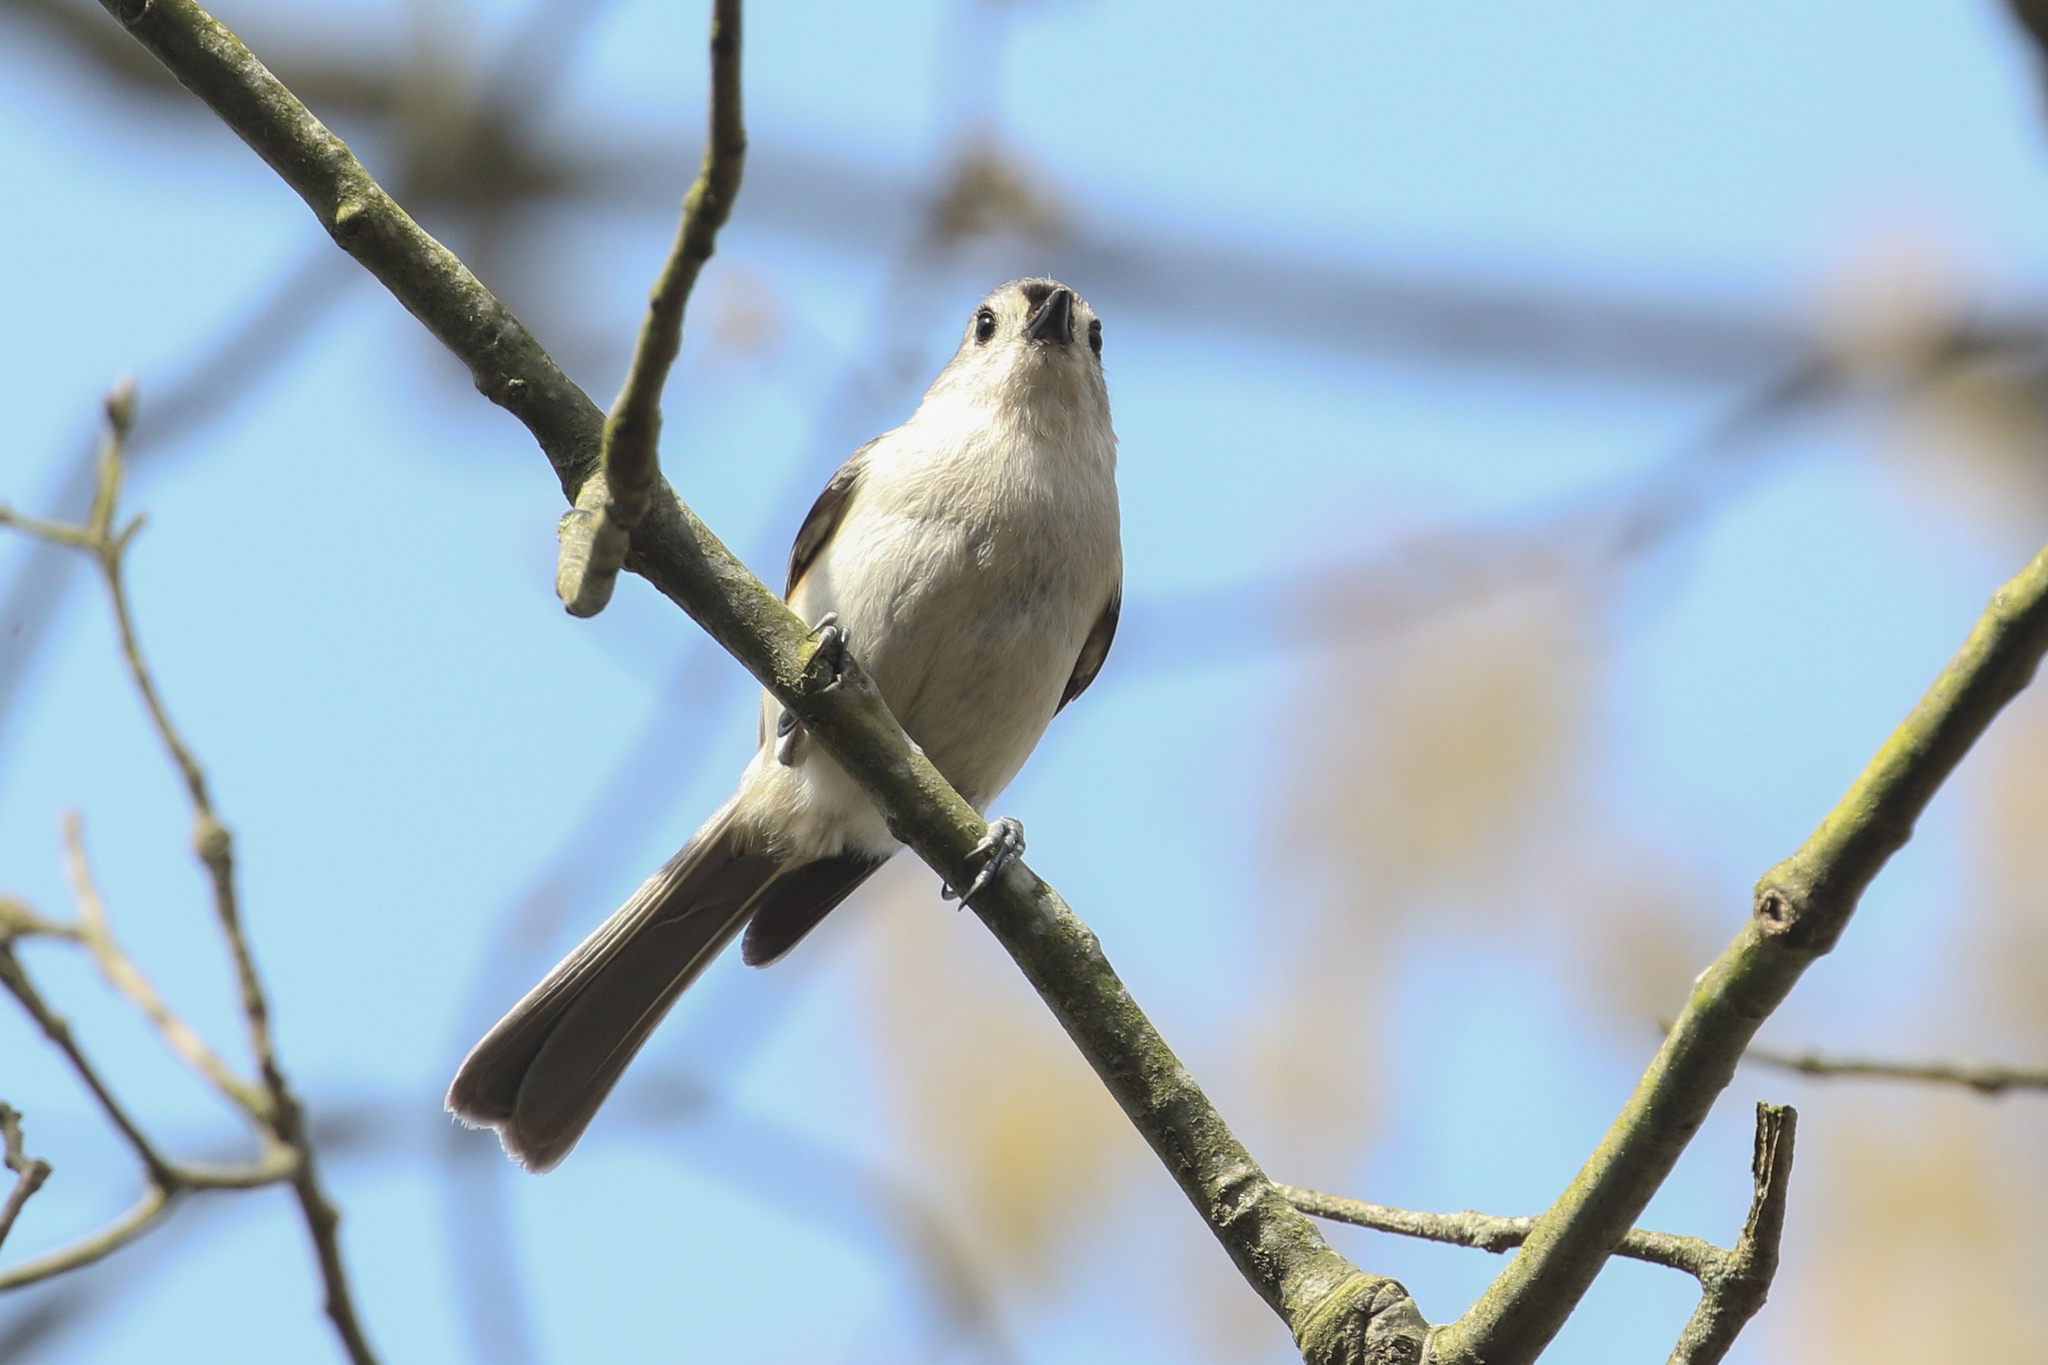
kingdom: Animalia
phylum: Chordata
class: Aves
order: Passeriformes
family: Paridae
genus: Baeolophus
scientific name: Baeolophus bicolor
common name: Tufted titmouse
